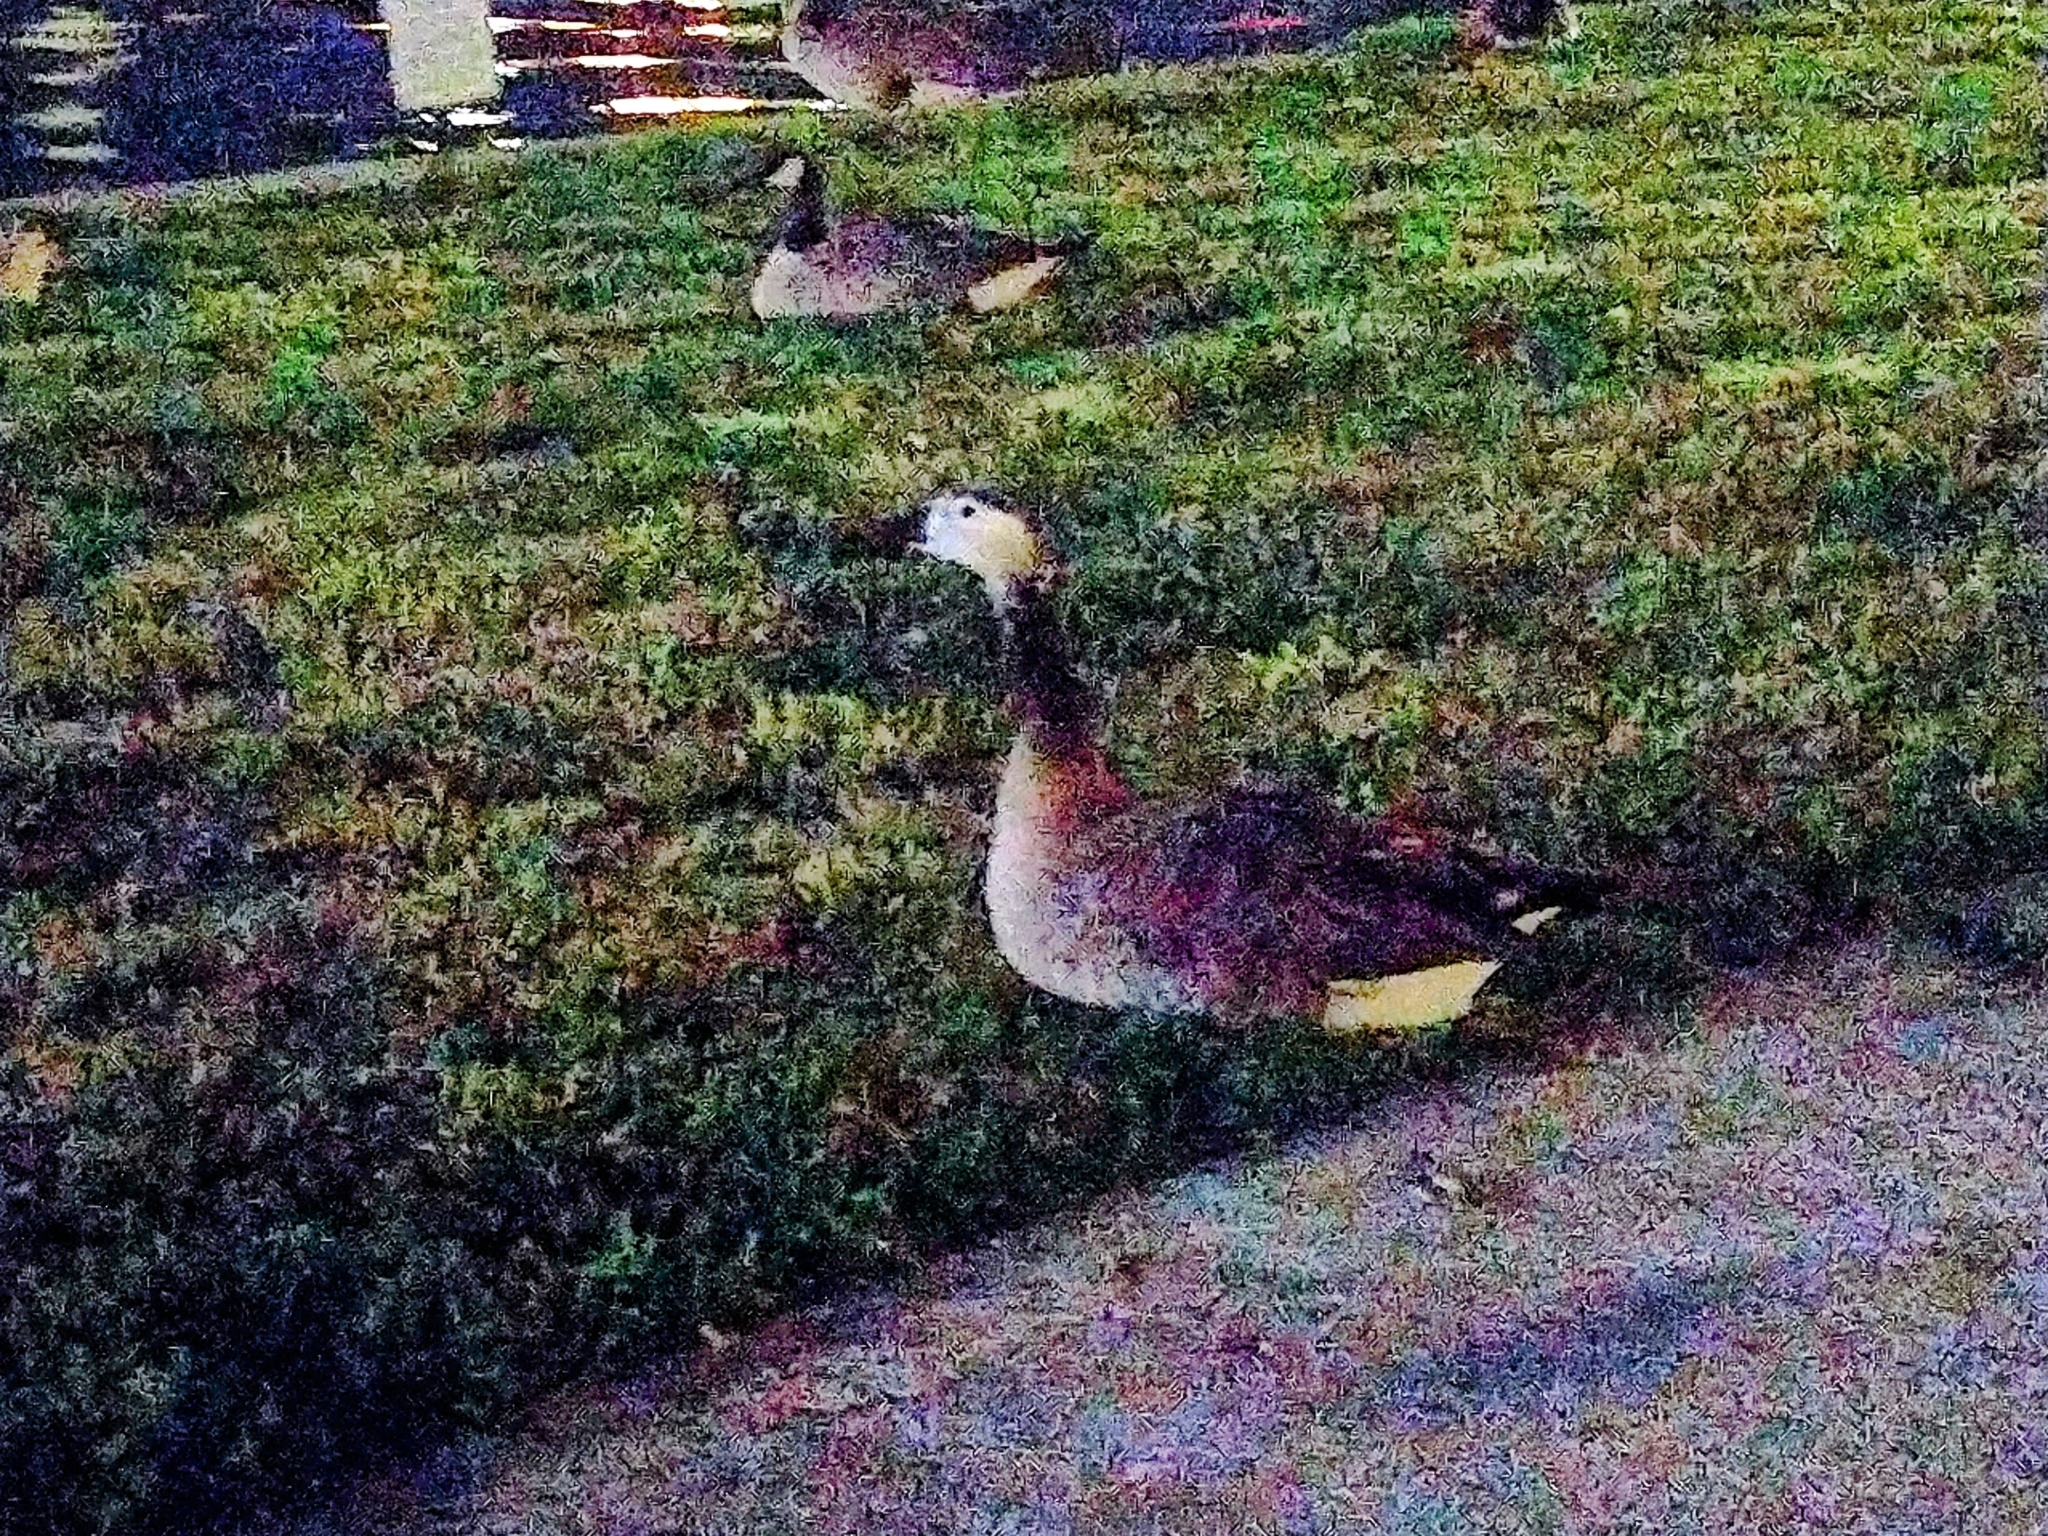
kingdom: Animalia
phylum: Chordata
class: Aves
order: Anseriformes
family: Anatidae
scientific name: Anatidae
